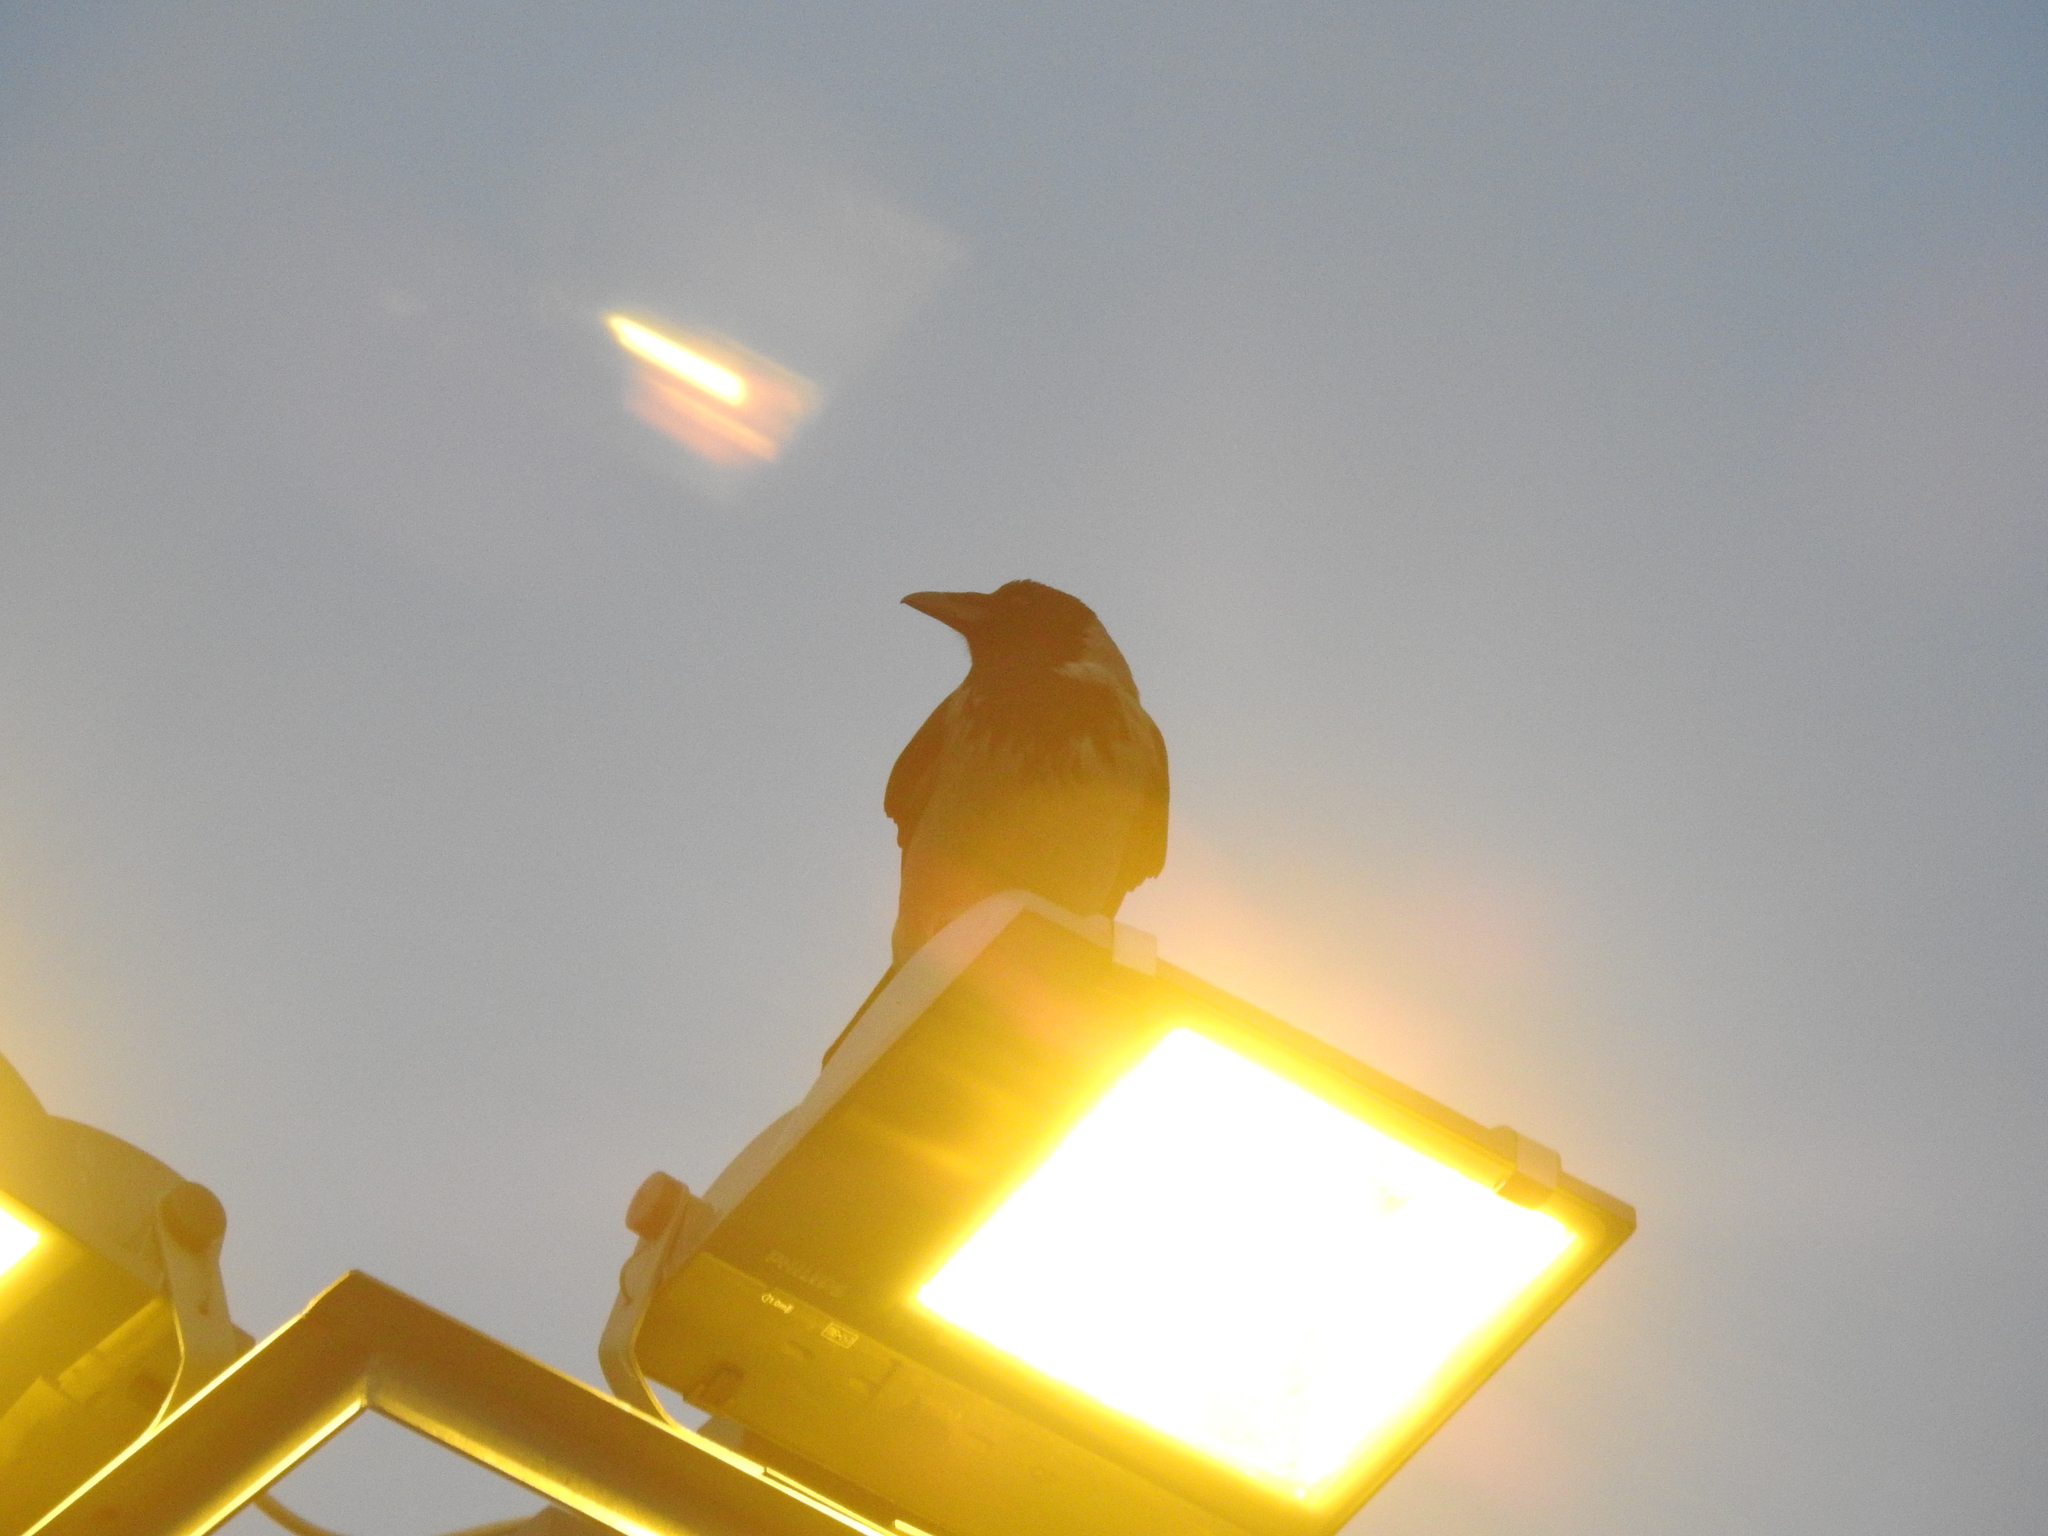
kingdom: Animalia
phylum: Chordata
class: Aves
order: Passeriformes
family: Corvidae
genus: Corvus
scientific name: Corvus cornix
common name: Hooded crow
